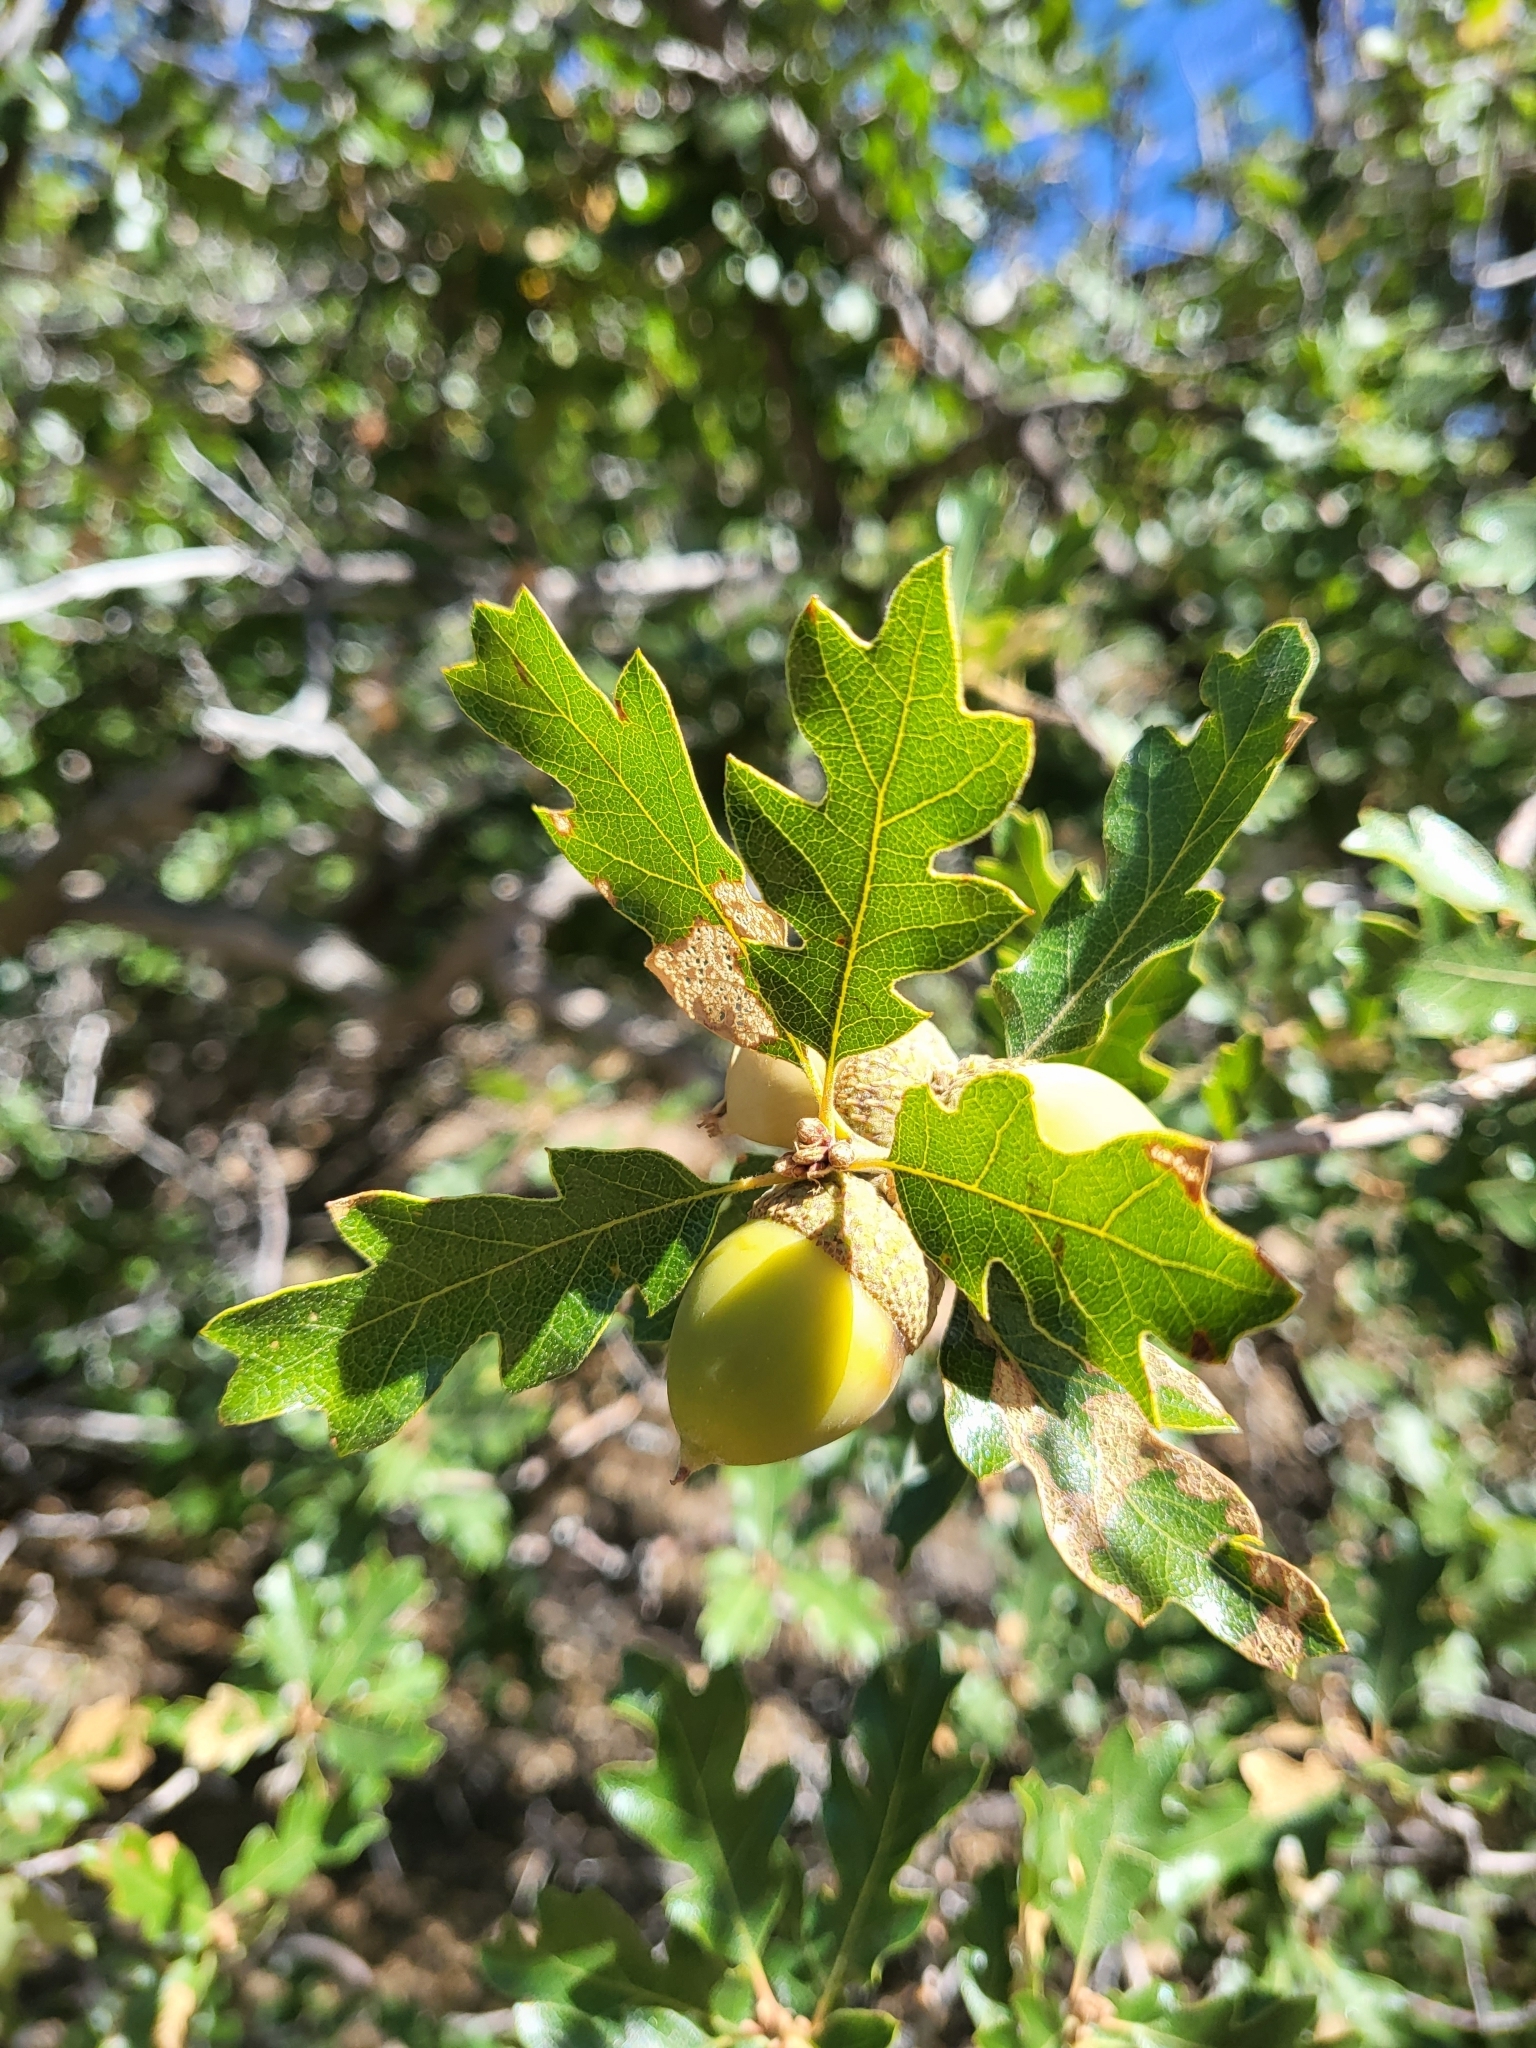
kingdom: Plantae
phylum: Tracheophyta
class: Magnoliopsida
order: Fagales
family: Fagaceae
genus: Quercus
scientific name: Quercus garryana
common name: Garry oak
